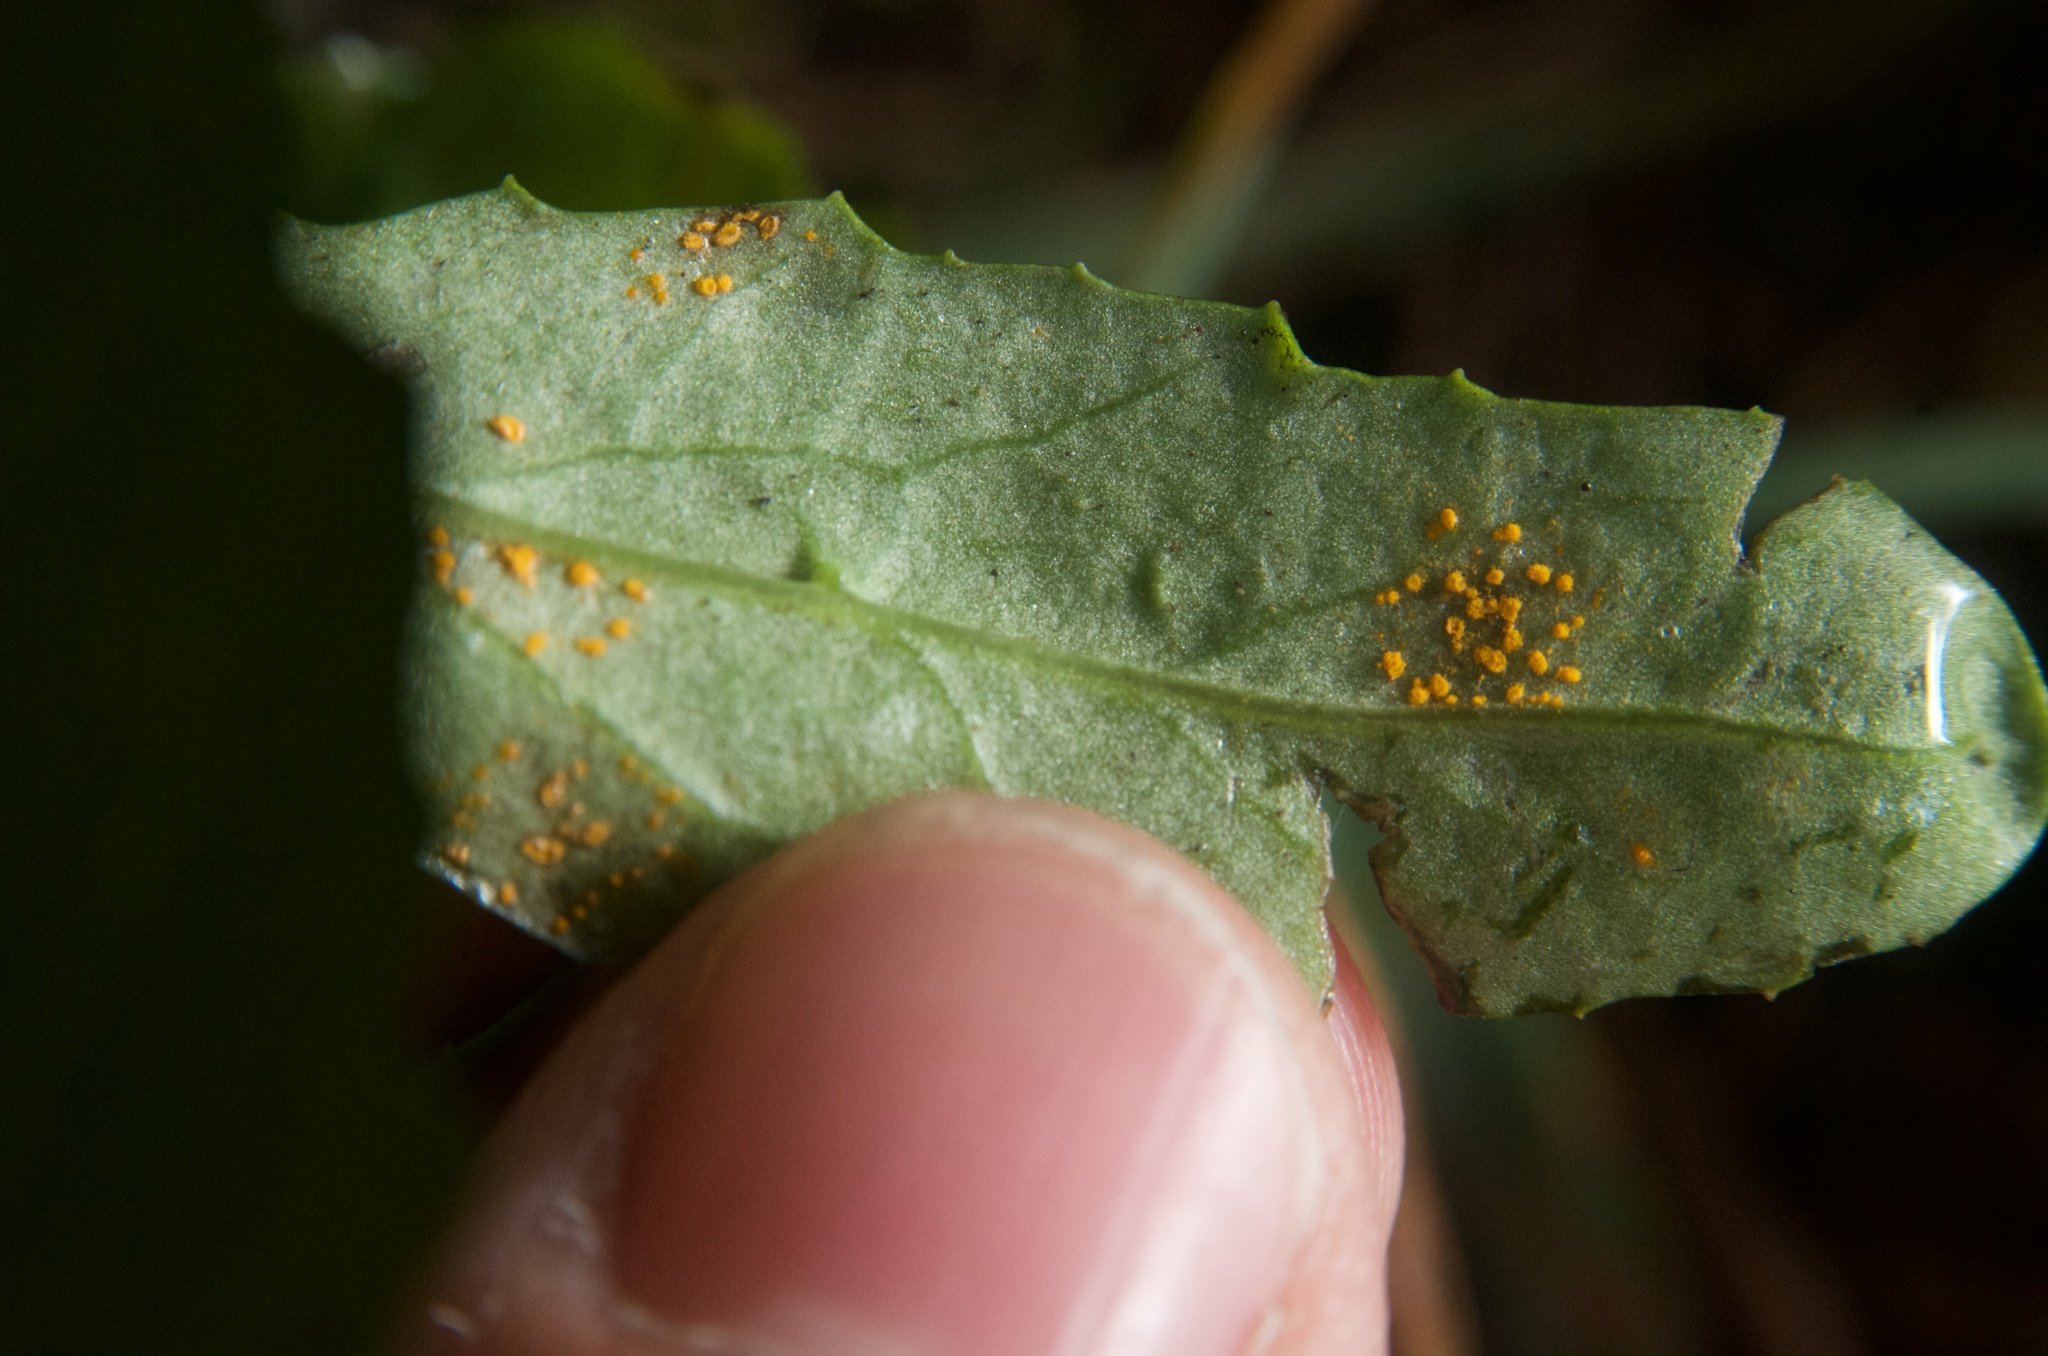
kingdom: Fungi
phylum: Basidiomycota
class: Pucciniomycetes
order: Pucciniales
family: Coleosporiaceae
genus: Coleosporium
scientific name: Coleosporium tussilaginis
